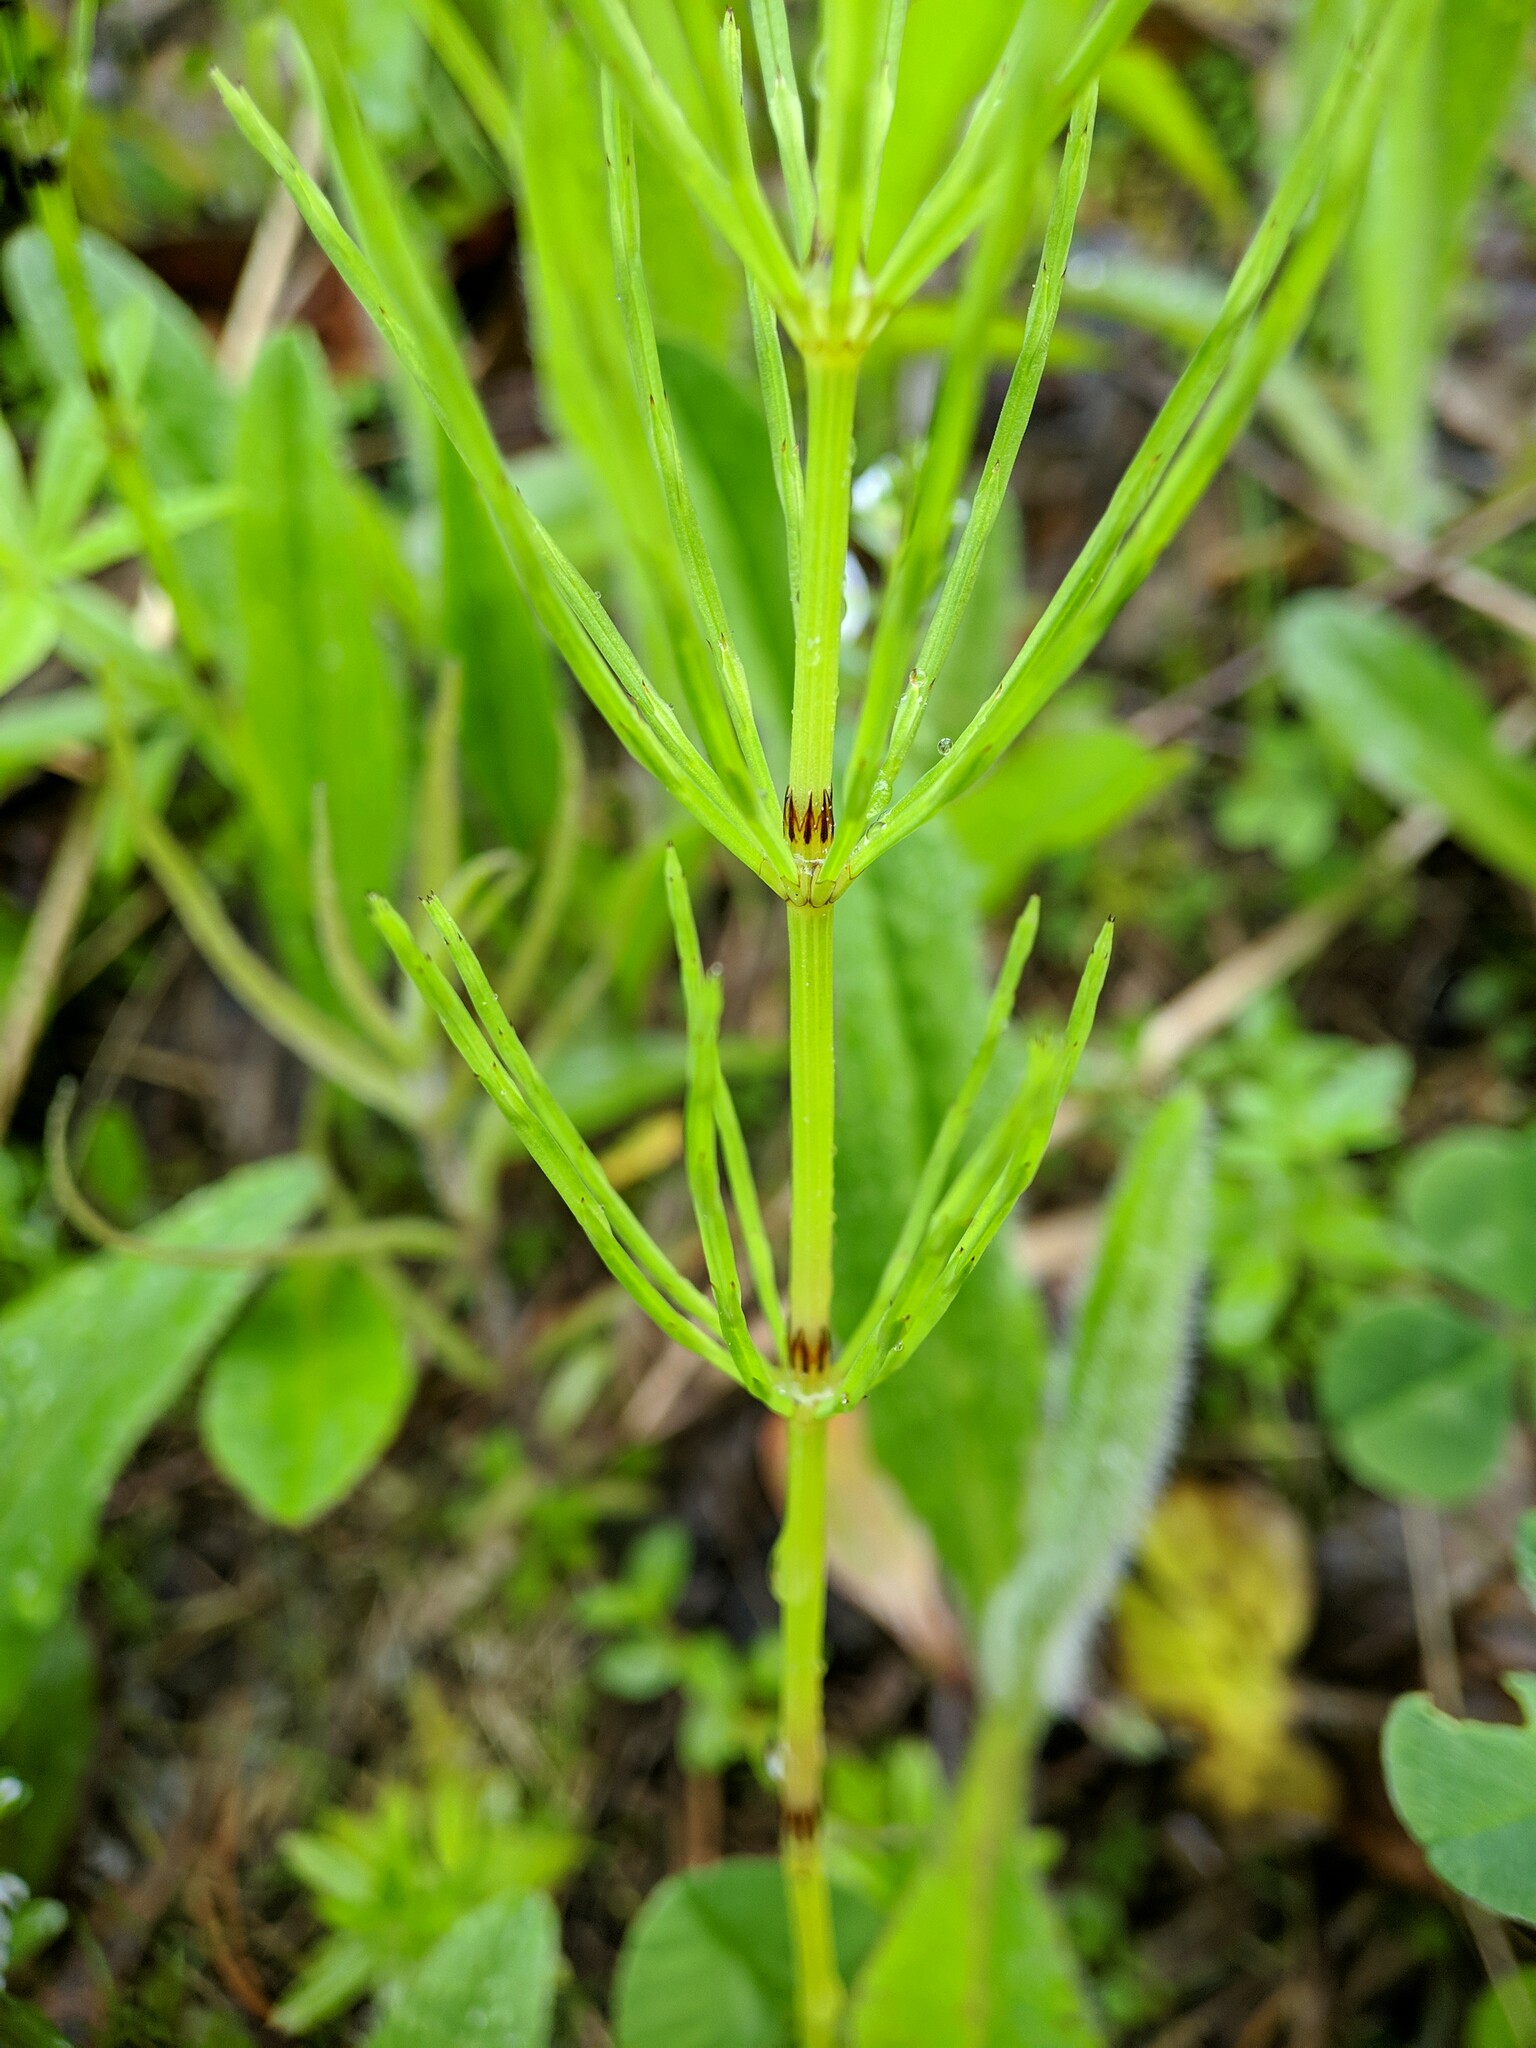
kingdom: Plantae
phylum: Tracheophyta
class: Polypodiopsida
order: Equisetales
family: Equisetaceae
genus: Equisetum
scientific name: Equisetum arvense
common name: Field horsetail
